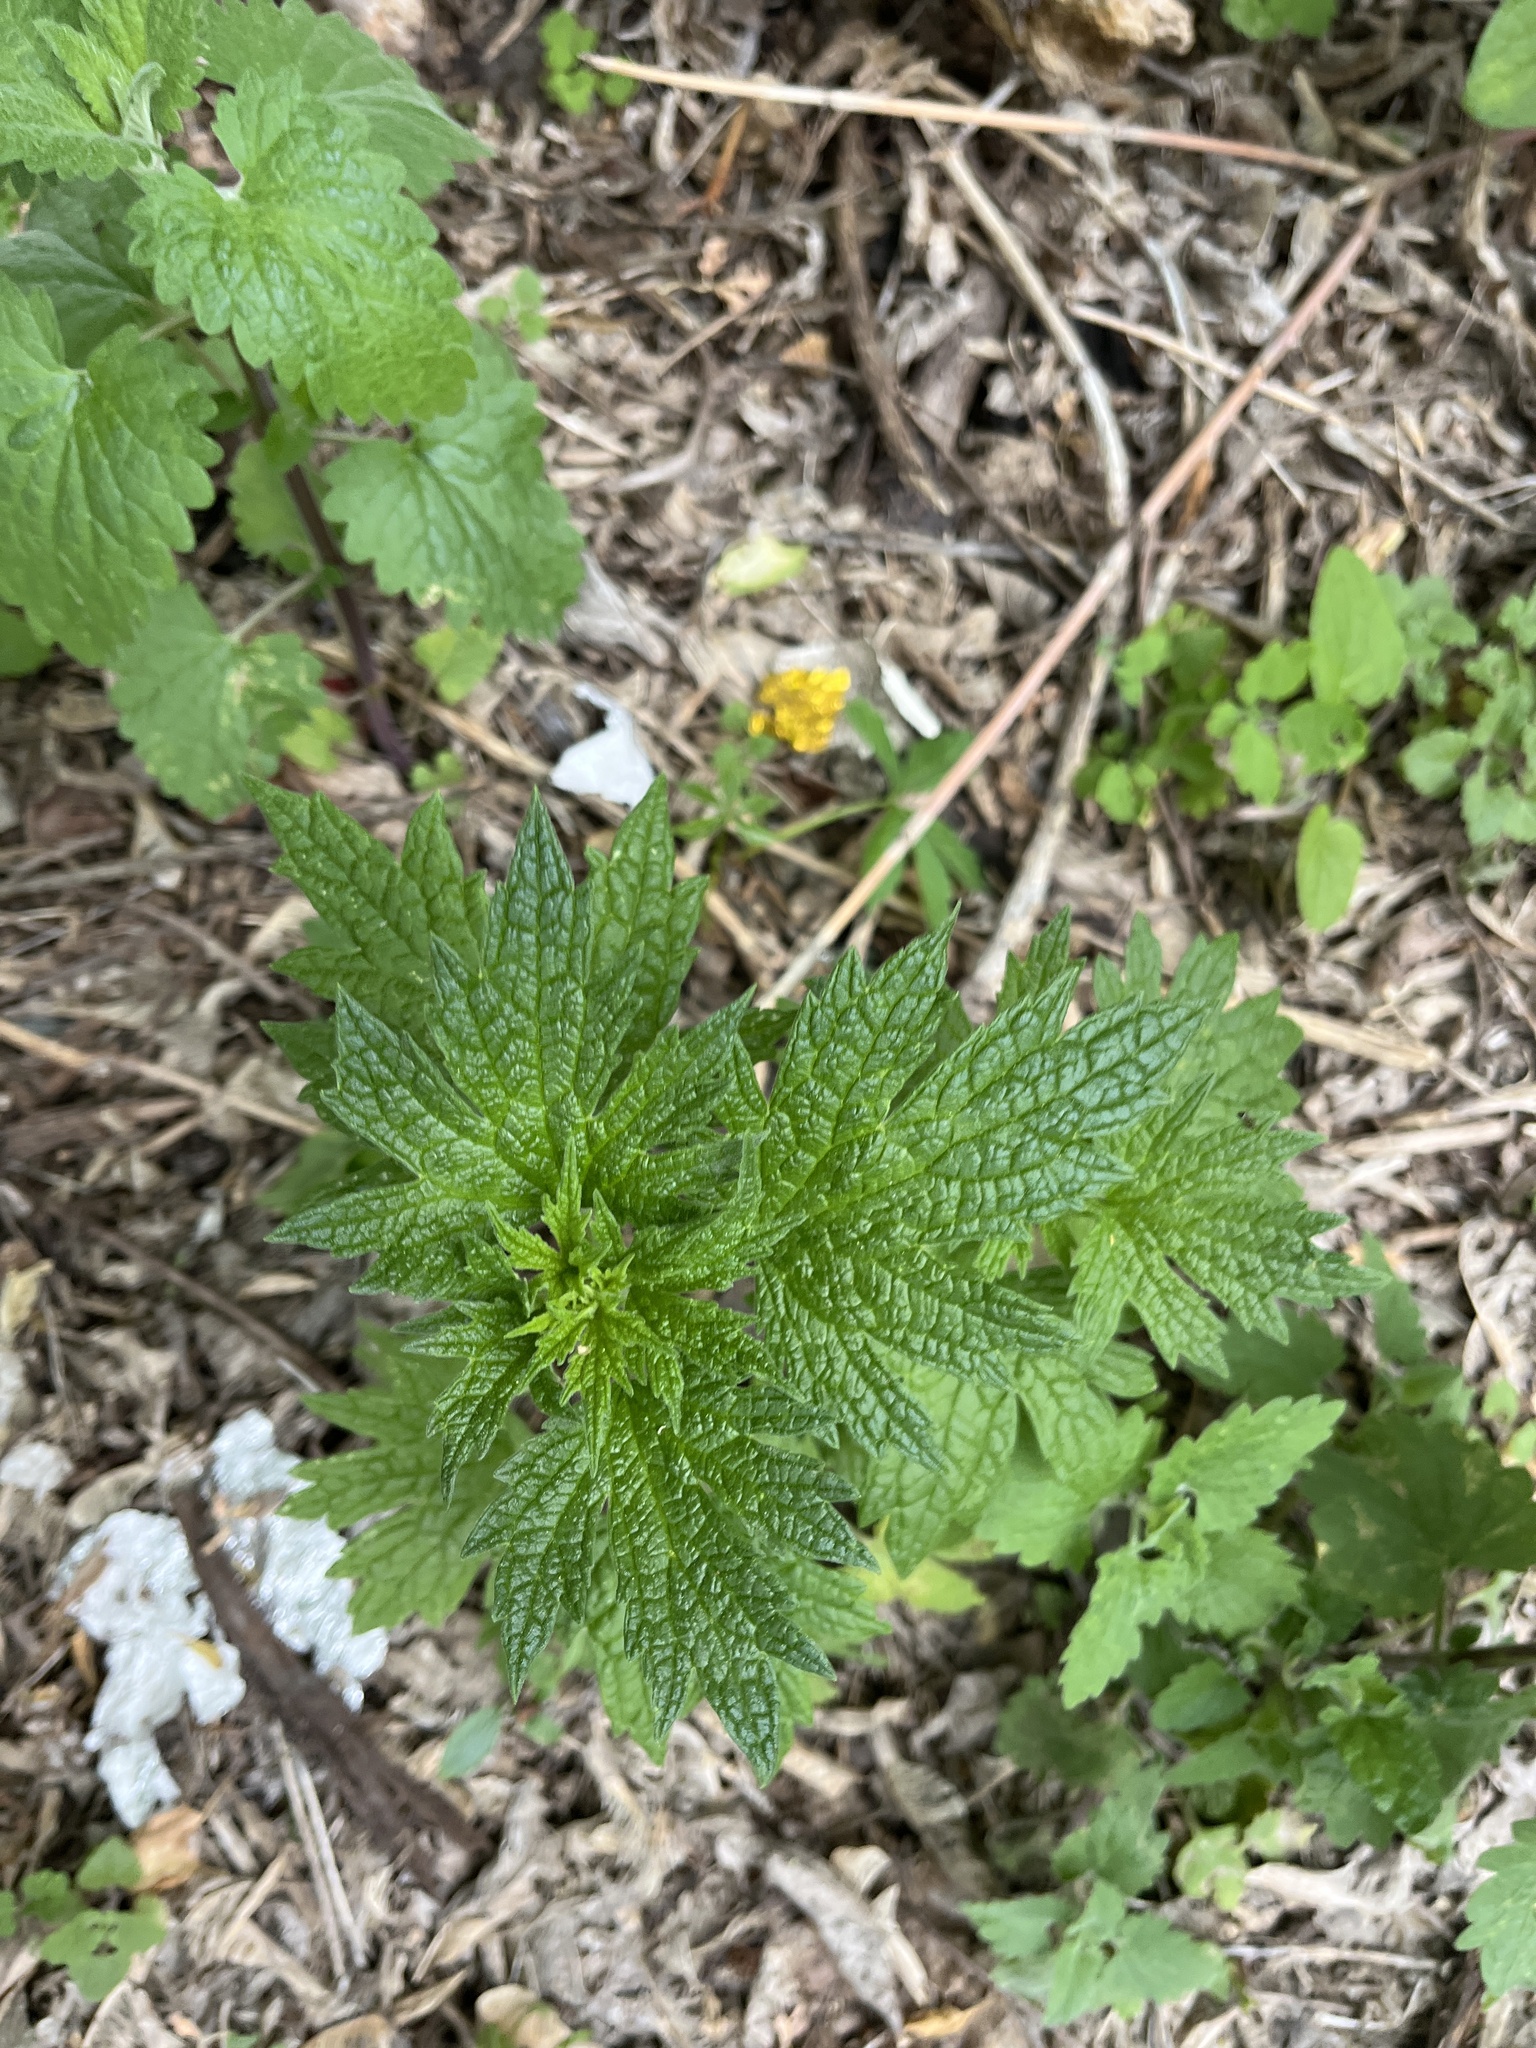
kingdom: Plantae
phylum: Tracheophyta
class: Magnoliopsida
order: Lamiales
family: Lamiaceae
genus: Leonurus
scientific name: Leonurus cardiaca
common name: Motherwort
